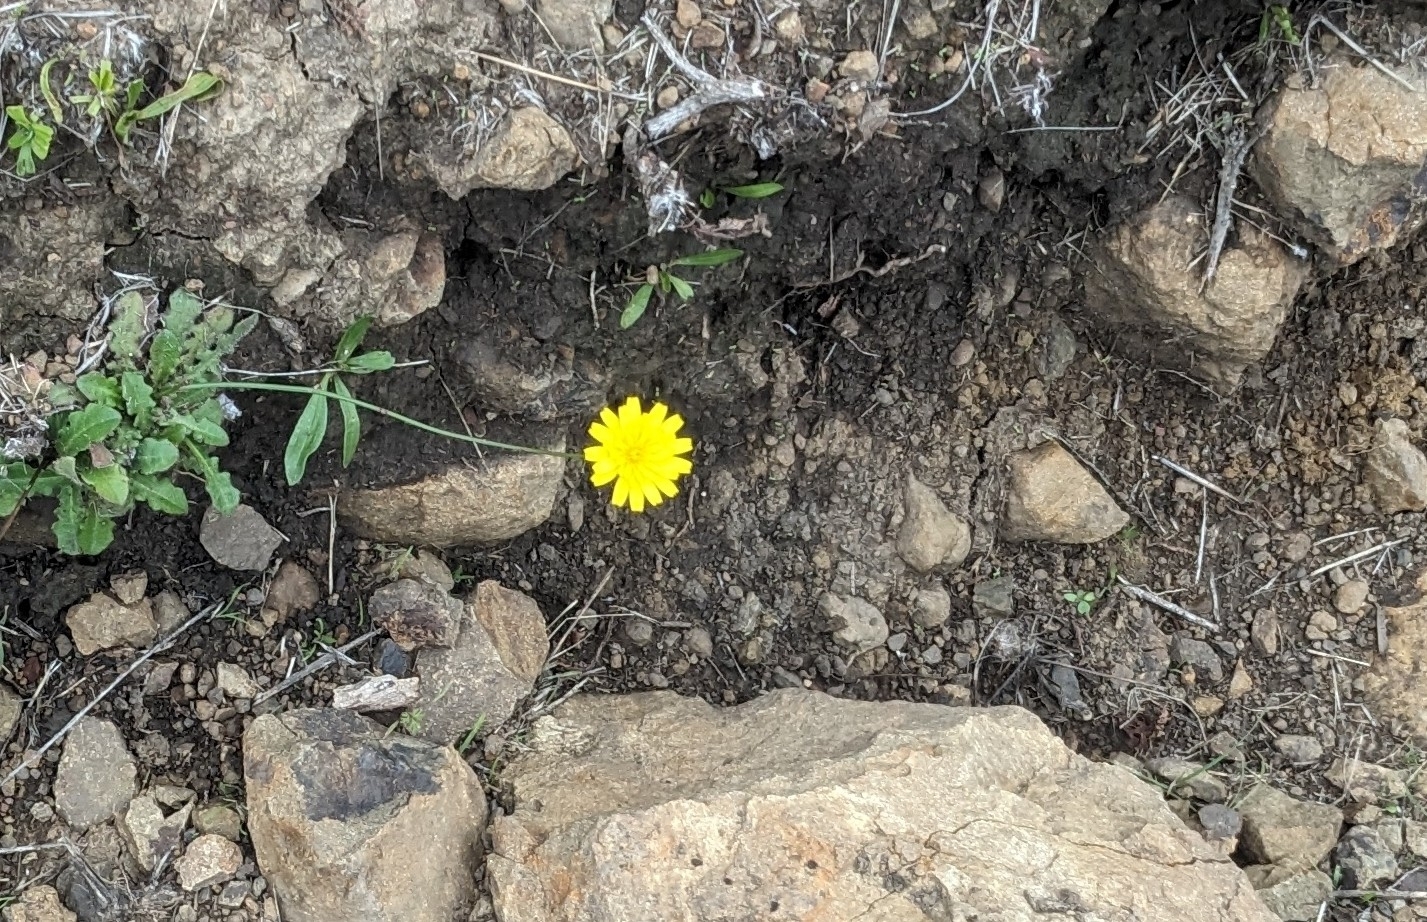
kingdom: Plantae
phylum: Tracheophyta
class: Magnoliopsida
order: Asterales
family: Asteraceae
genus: Hypochaeris
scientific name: Hypochaeris radicata
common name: Flatweed
